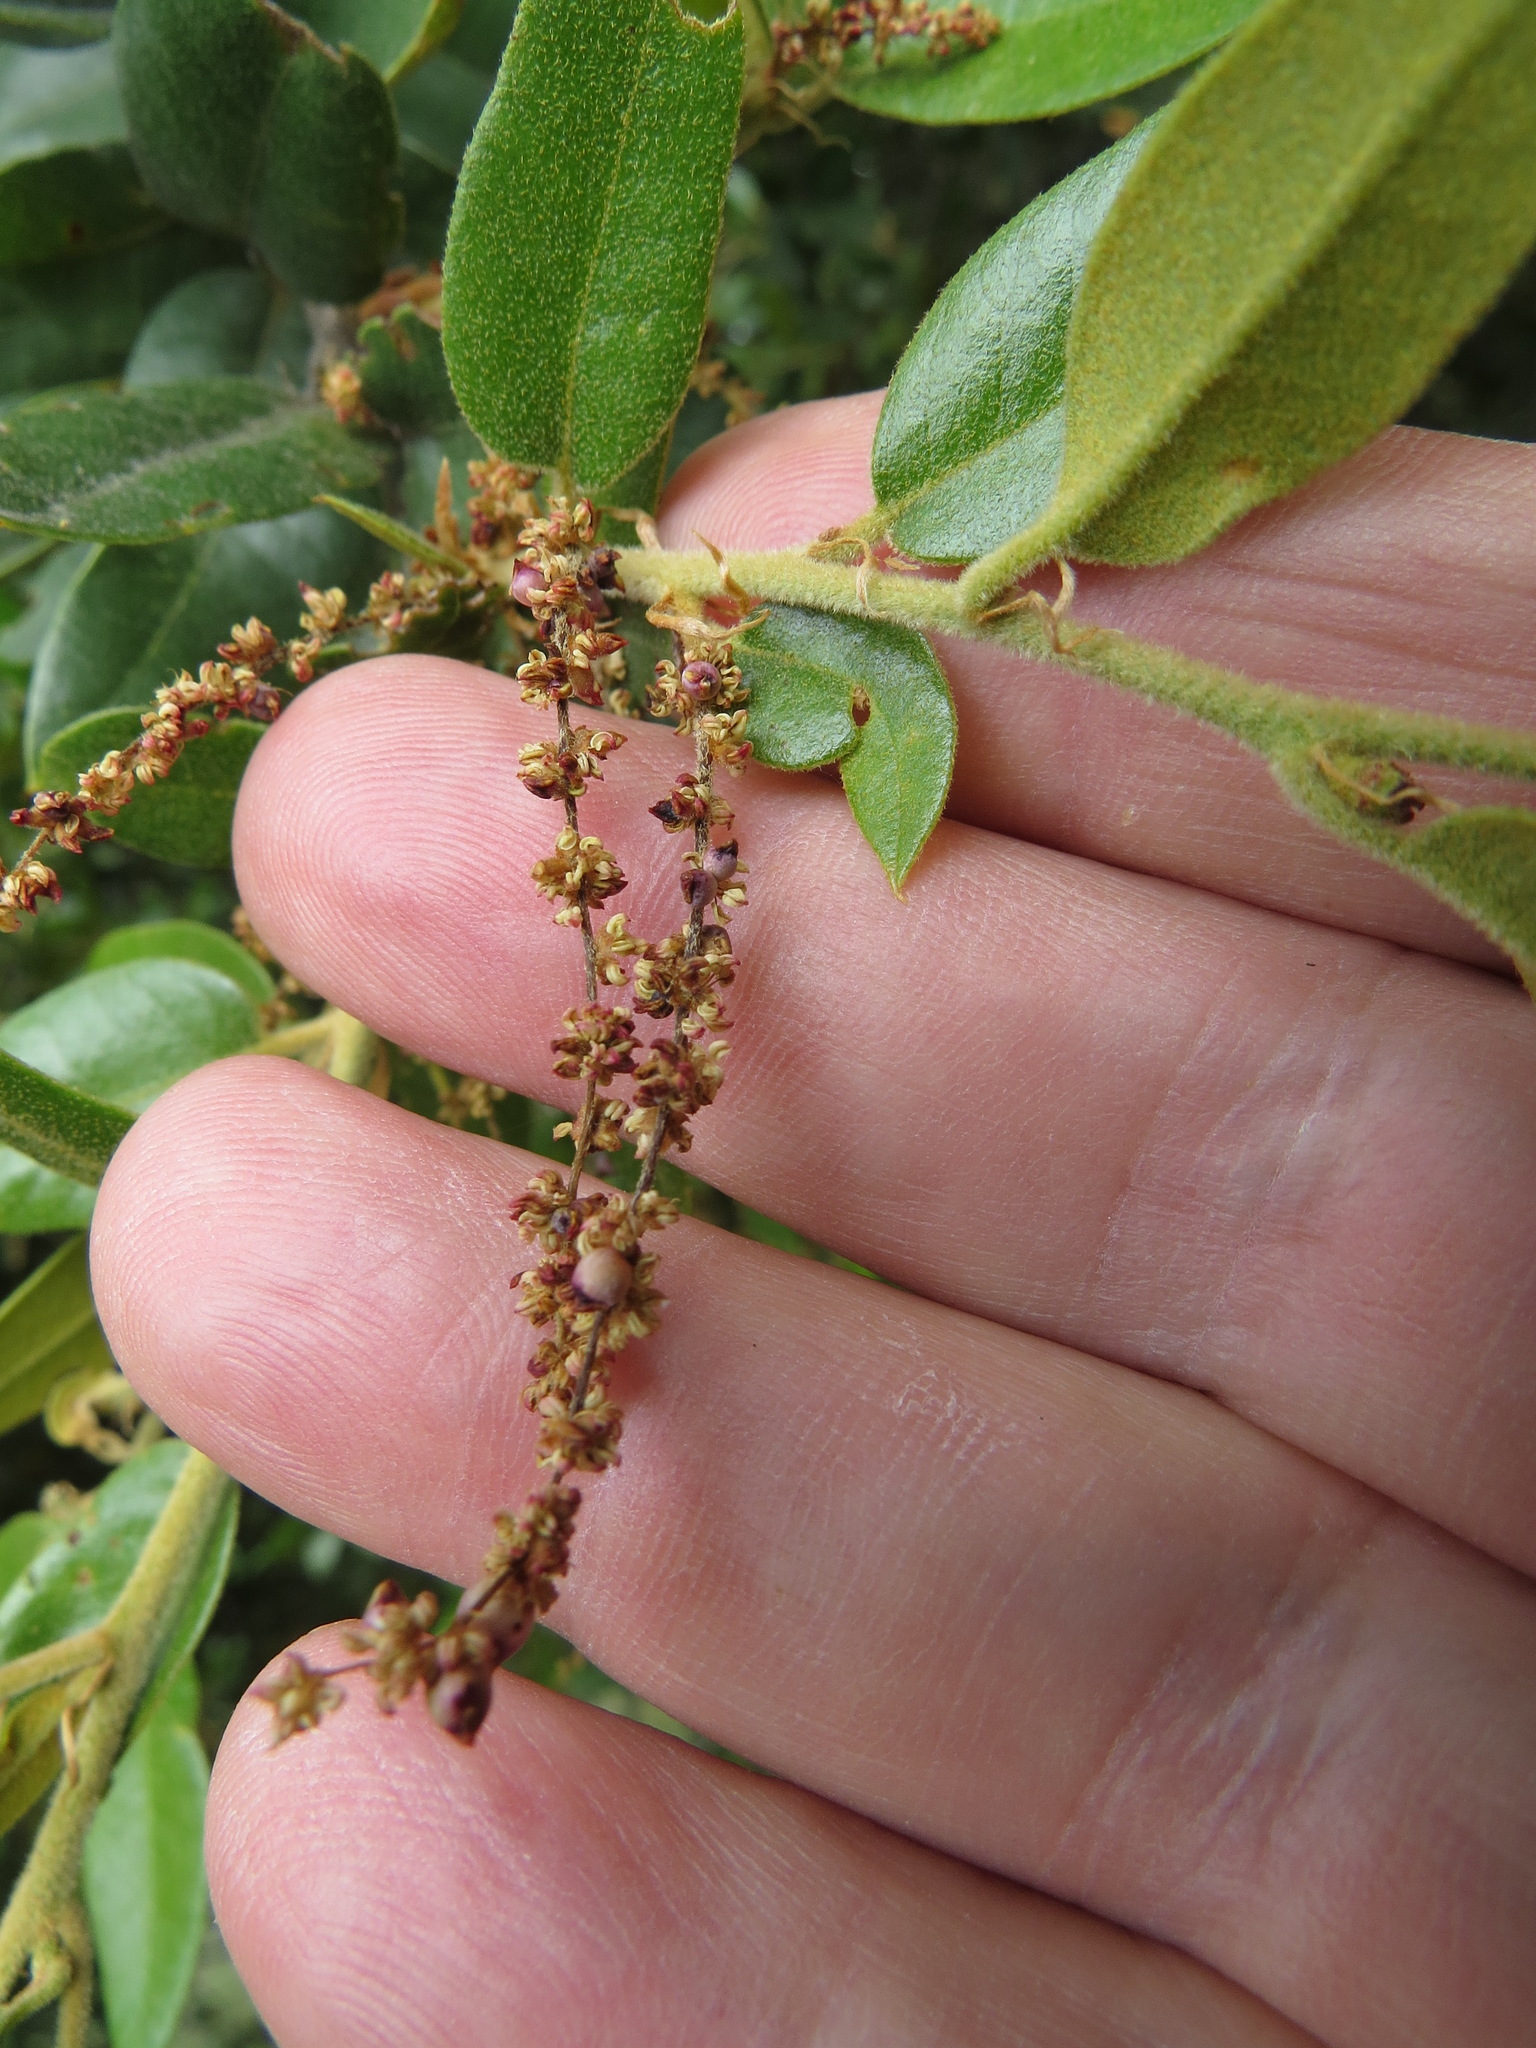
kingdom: Animalia
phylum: Arthropoda
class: Insecta
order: Hymenoptera
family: Cynipidae
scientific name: Cynipidae
